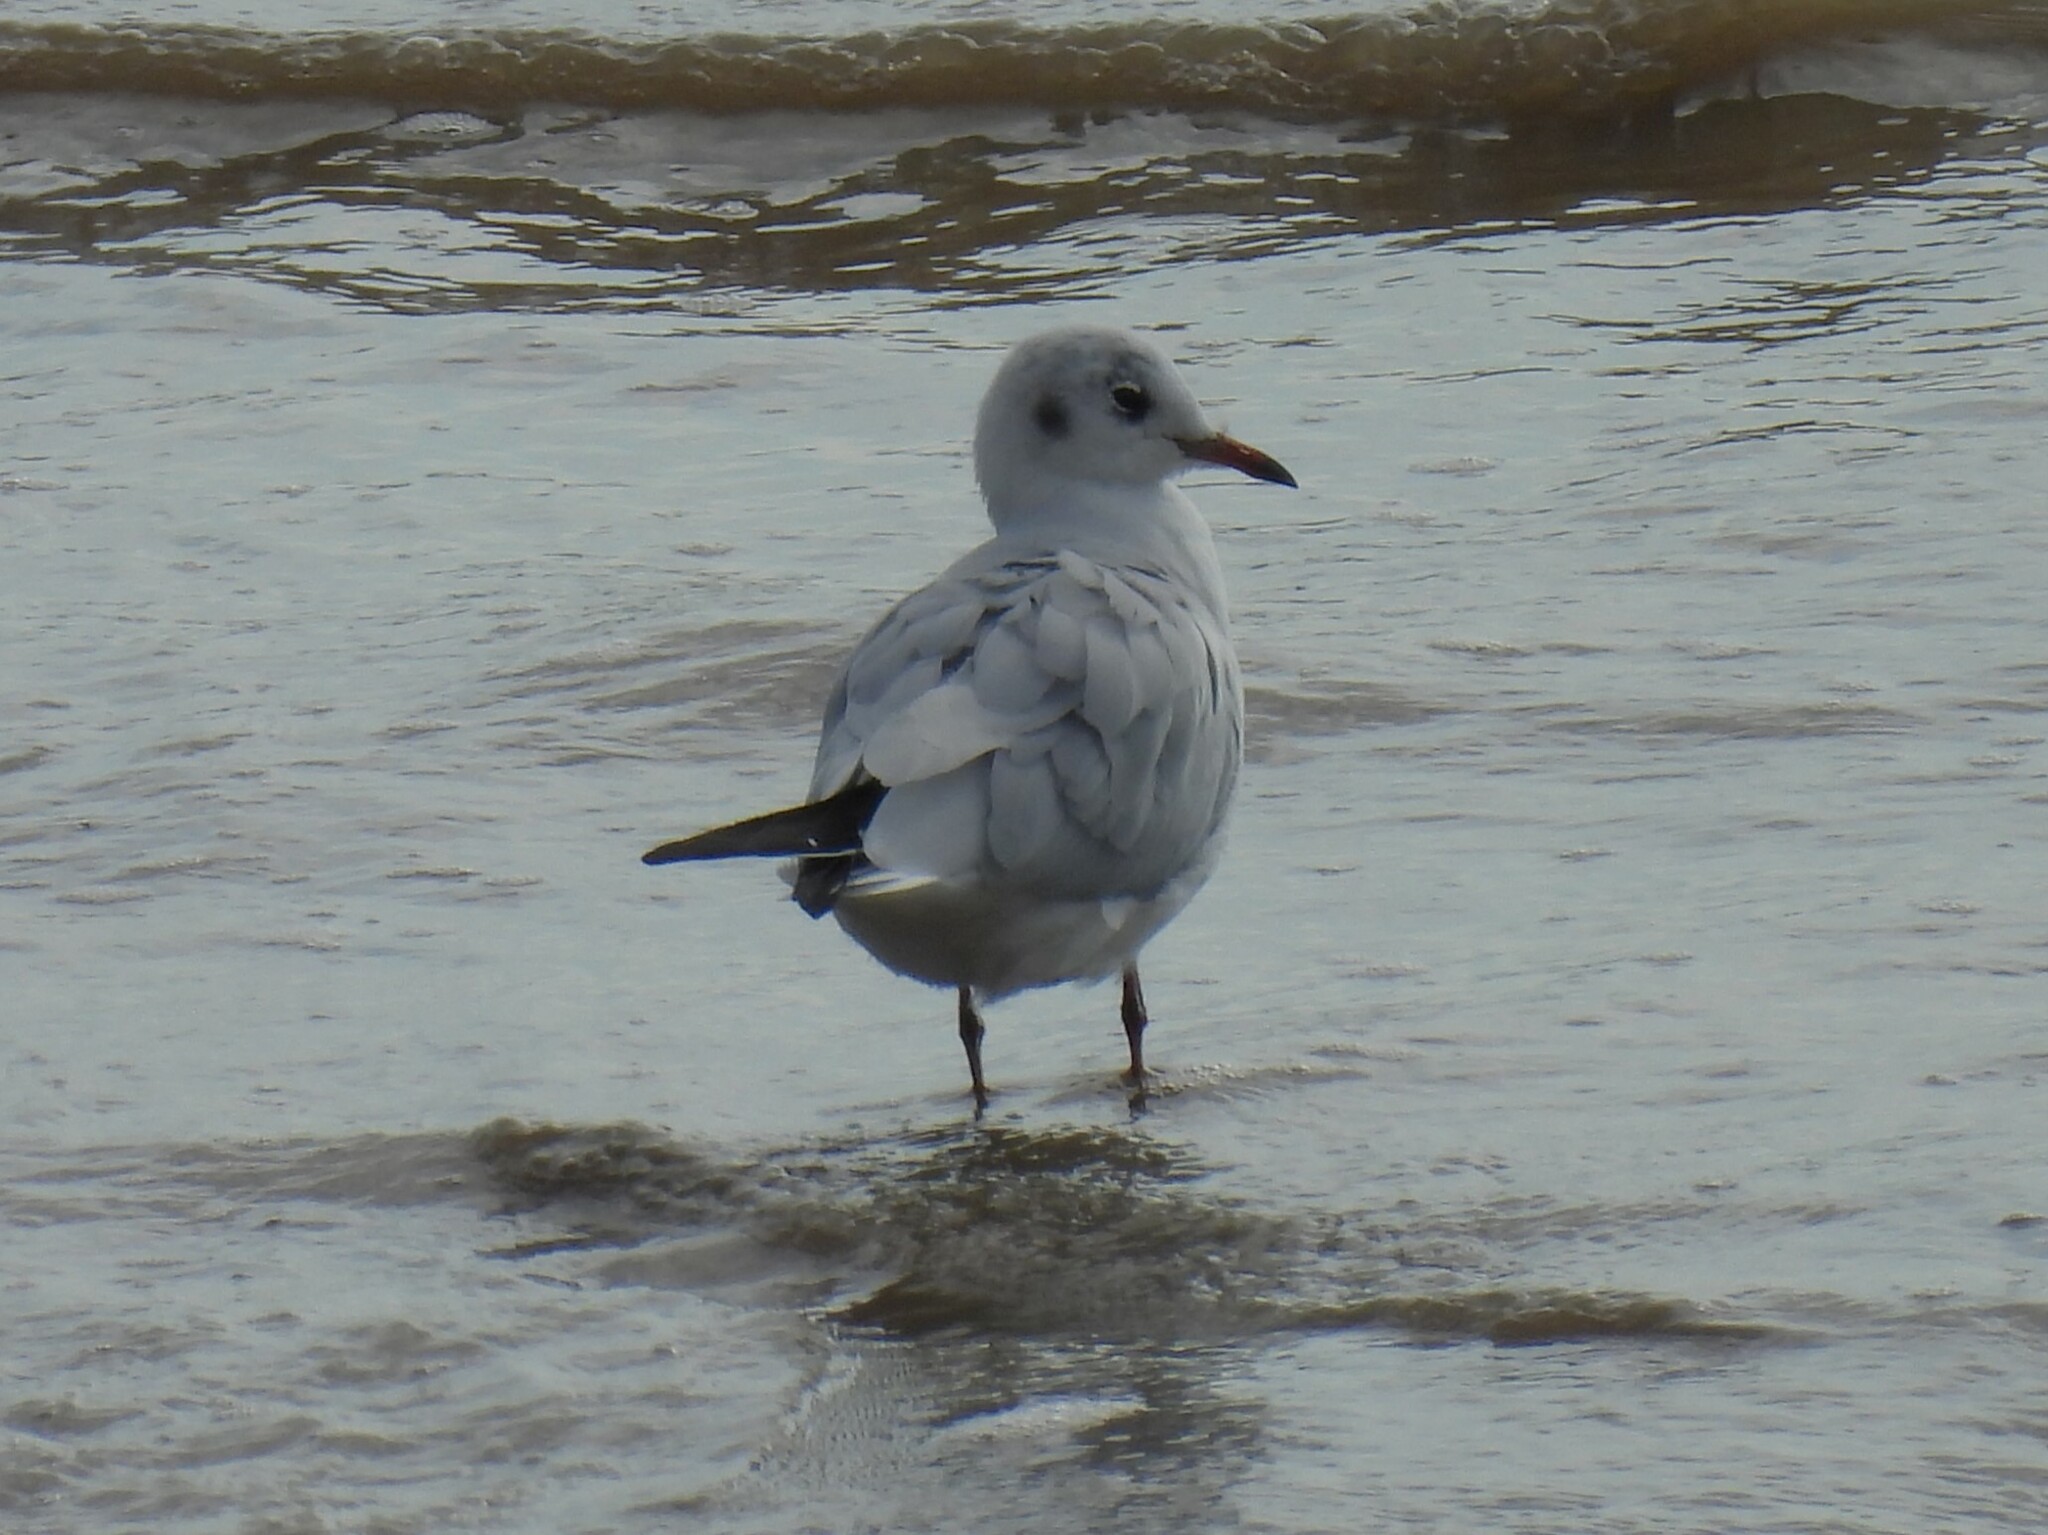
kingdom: Animalia
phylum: Chordata
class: Aves
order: Charadriiformes
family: Laridae
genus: Chroicocephalus
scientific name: Chroicocephalus ridibundus
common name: Black-headed gull
